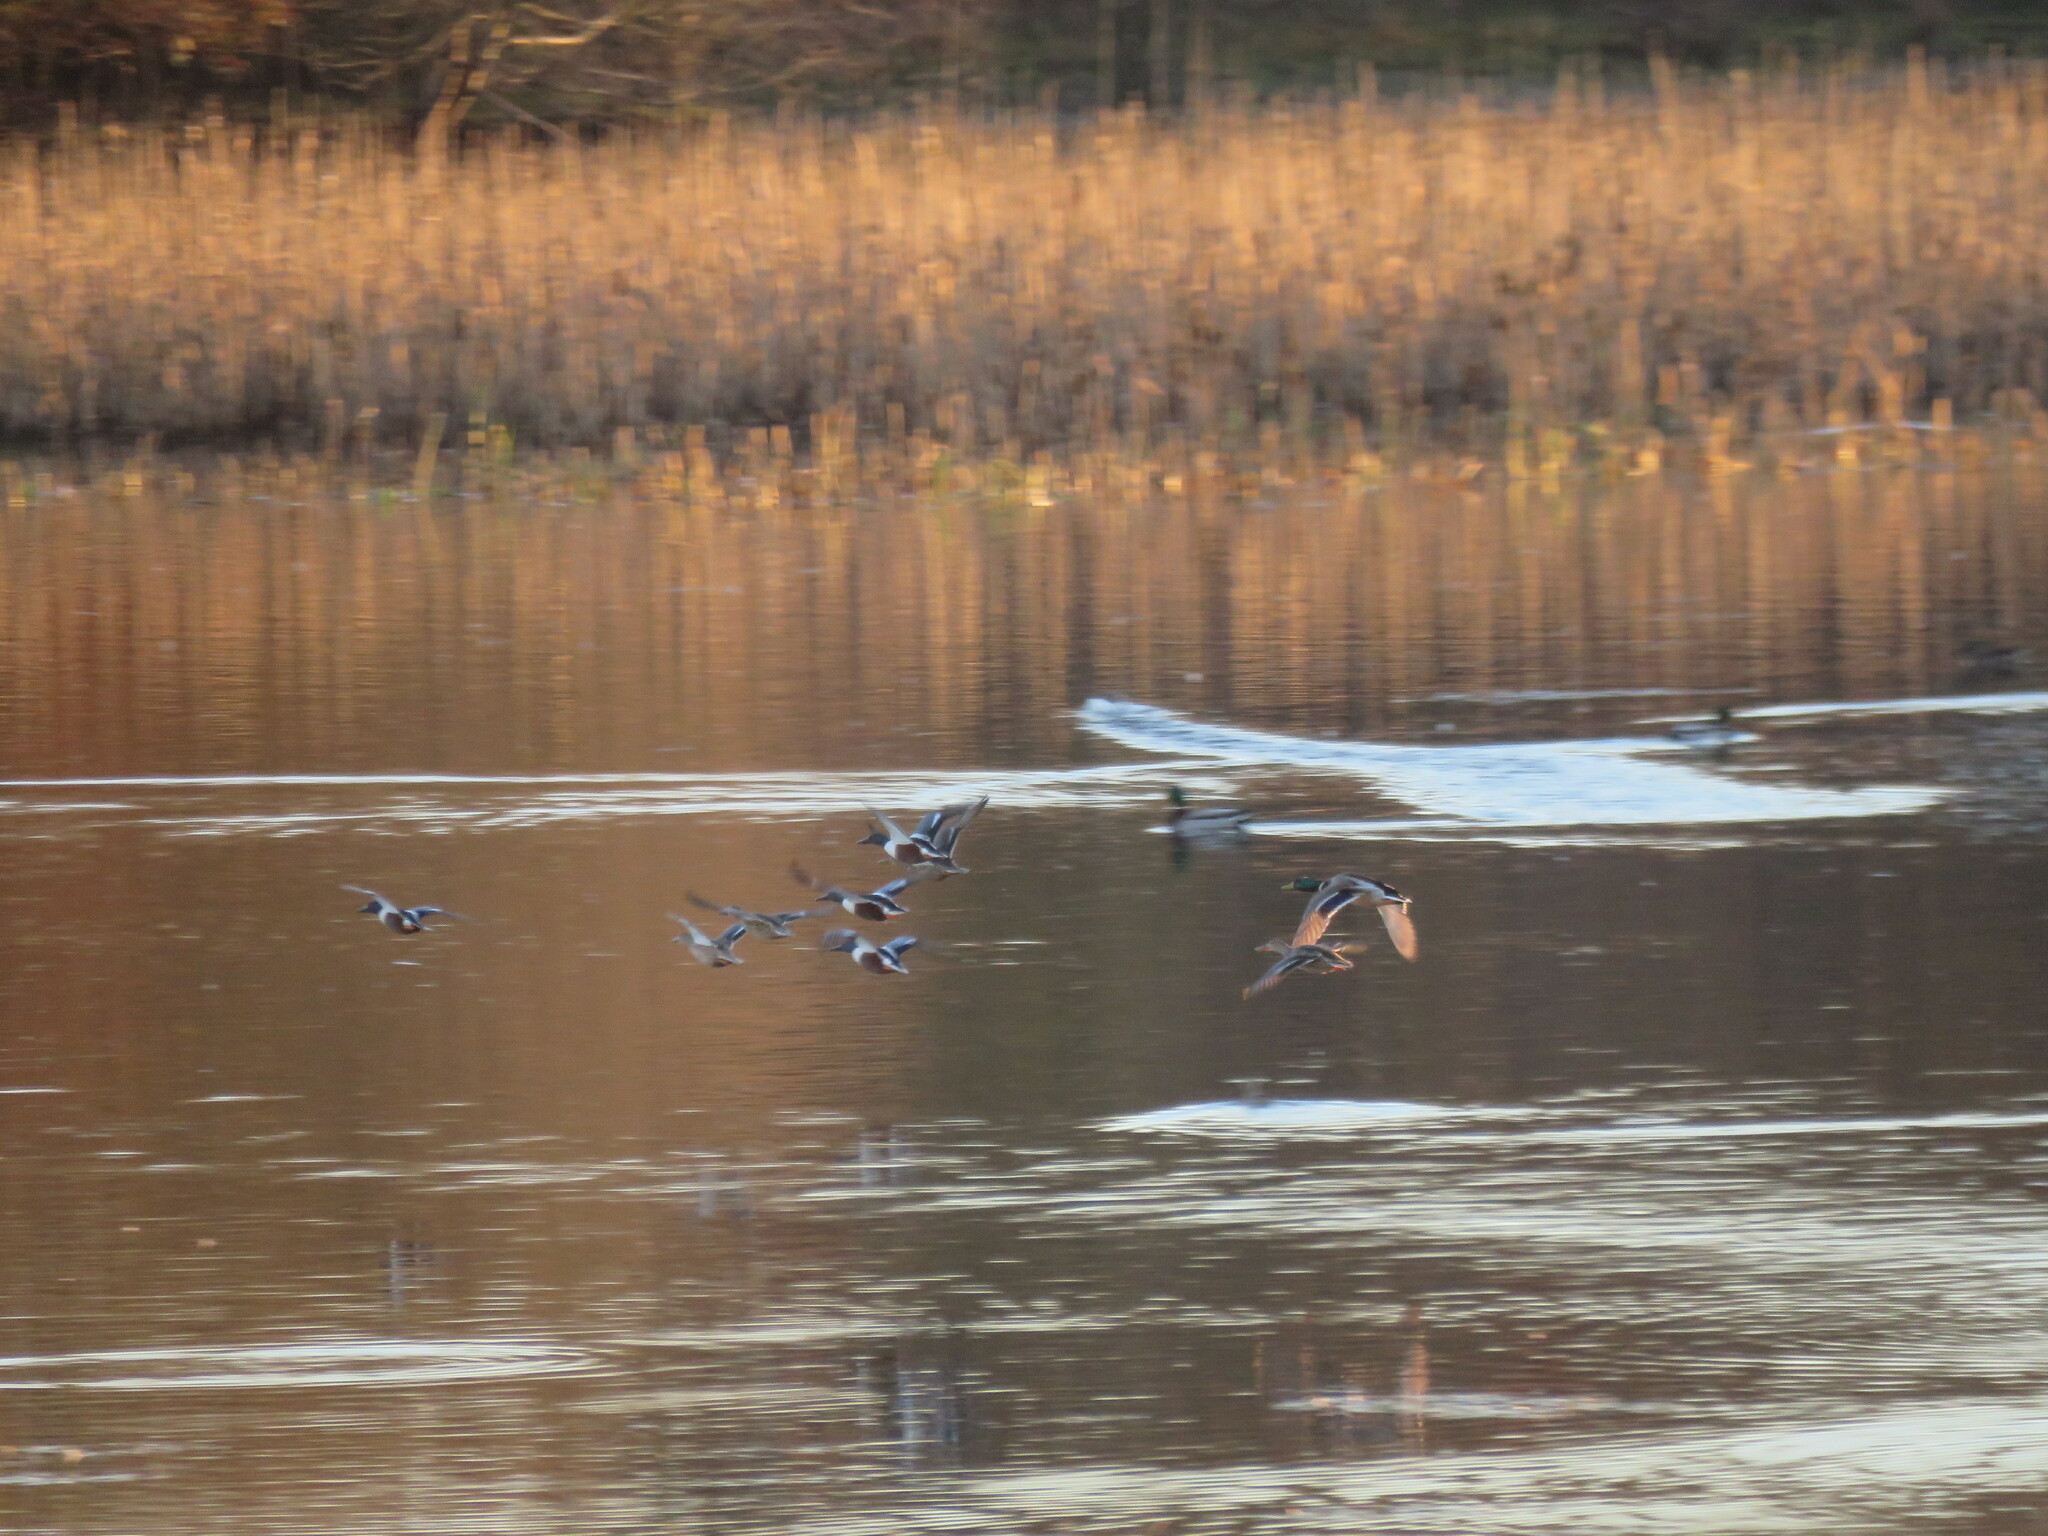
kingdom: Animalia
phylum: Chordata
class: Aves
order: Anseriformes
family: Anatidae
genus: Spatula
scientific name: Spatula clypeata
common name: Northern shoveler
